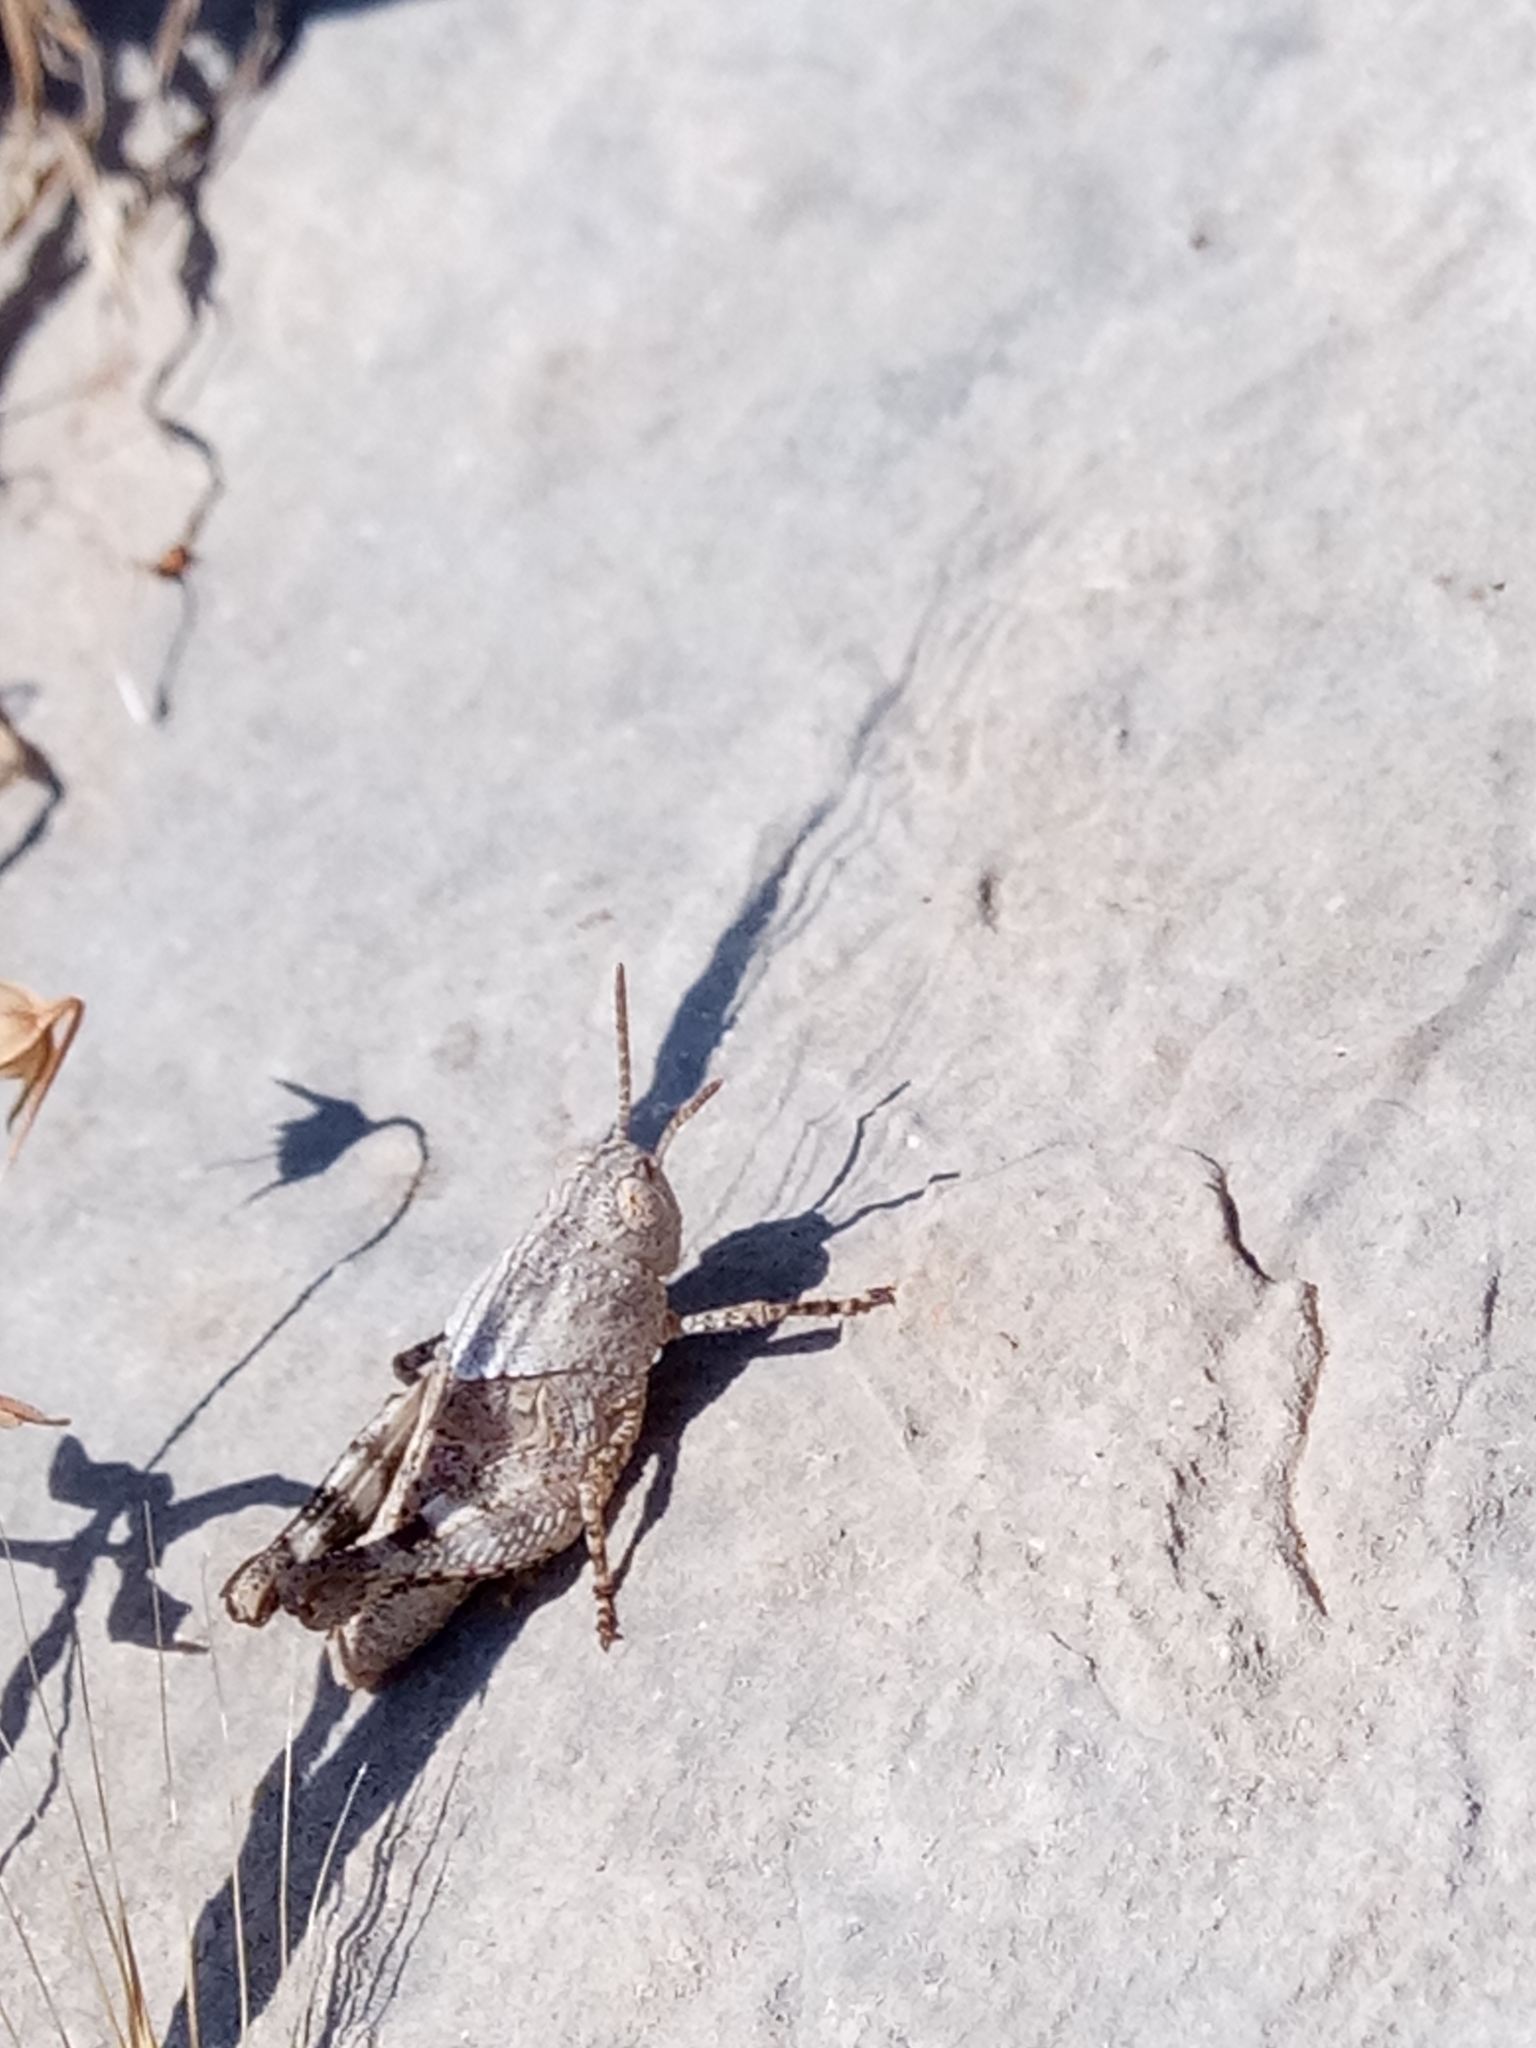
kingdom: Animalia
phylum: Arthropoda
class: Insecta
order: Orthoptera
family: Acrididae
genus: Pezotettix
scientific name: Pezotettix giornae
